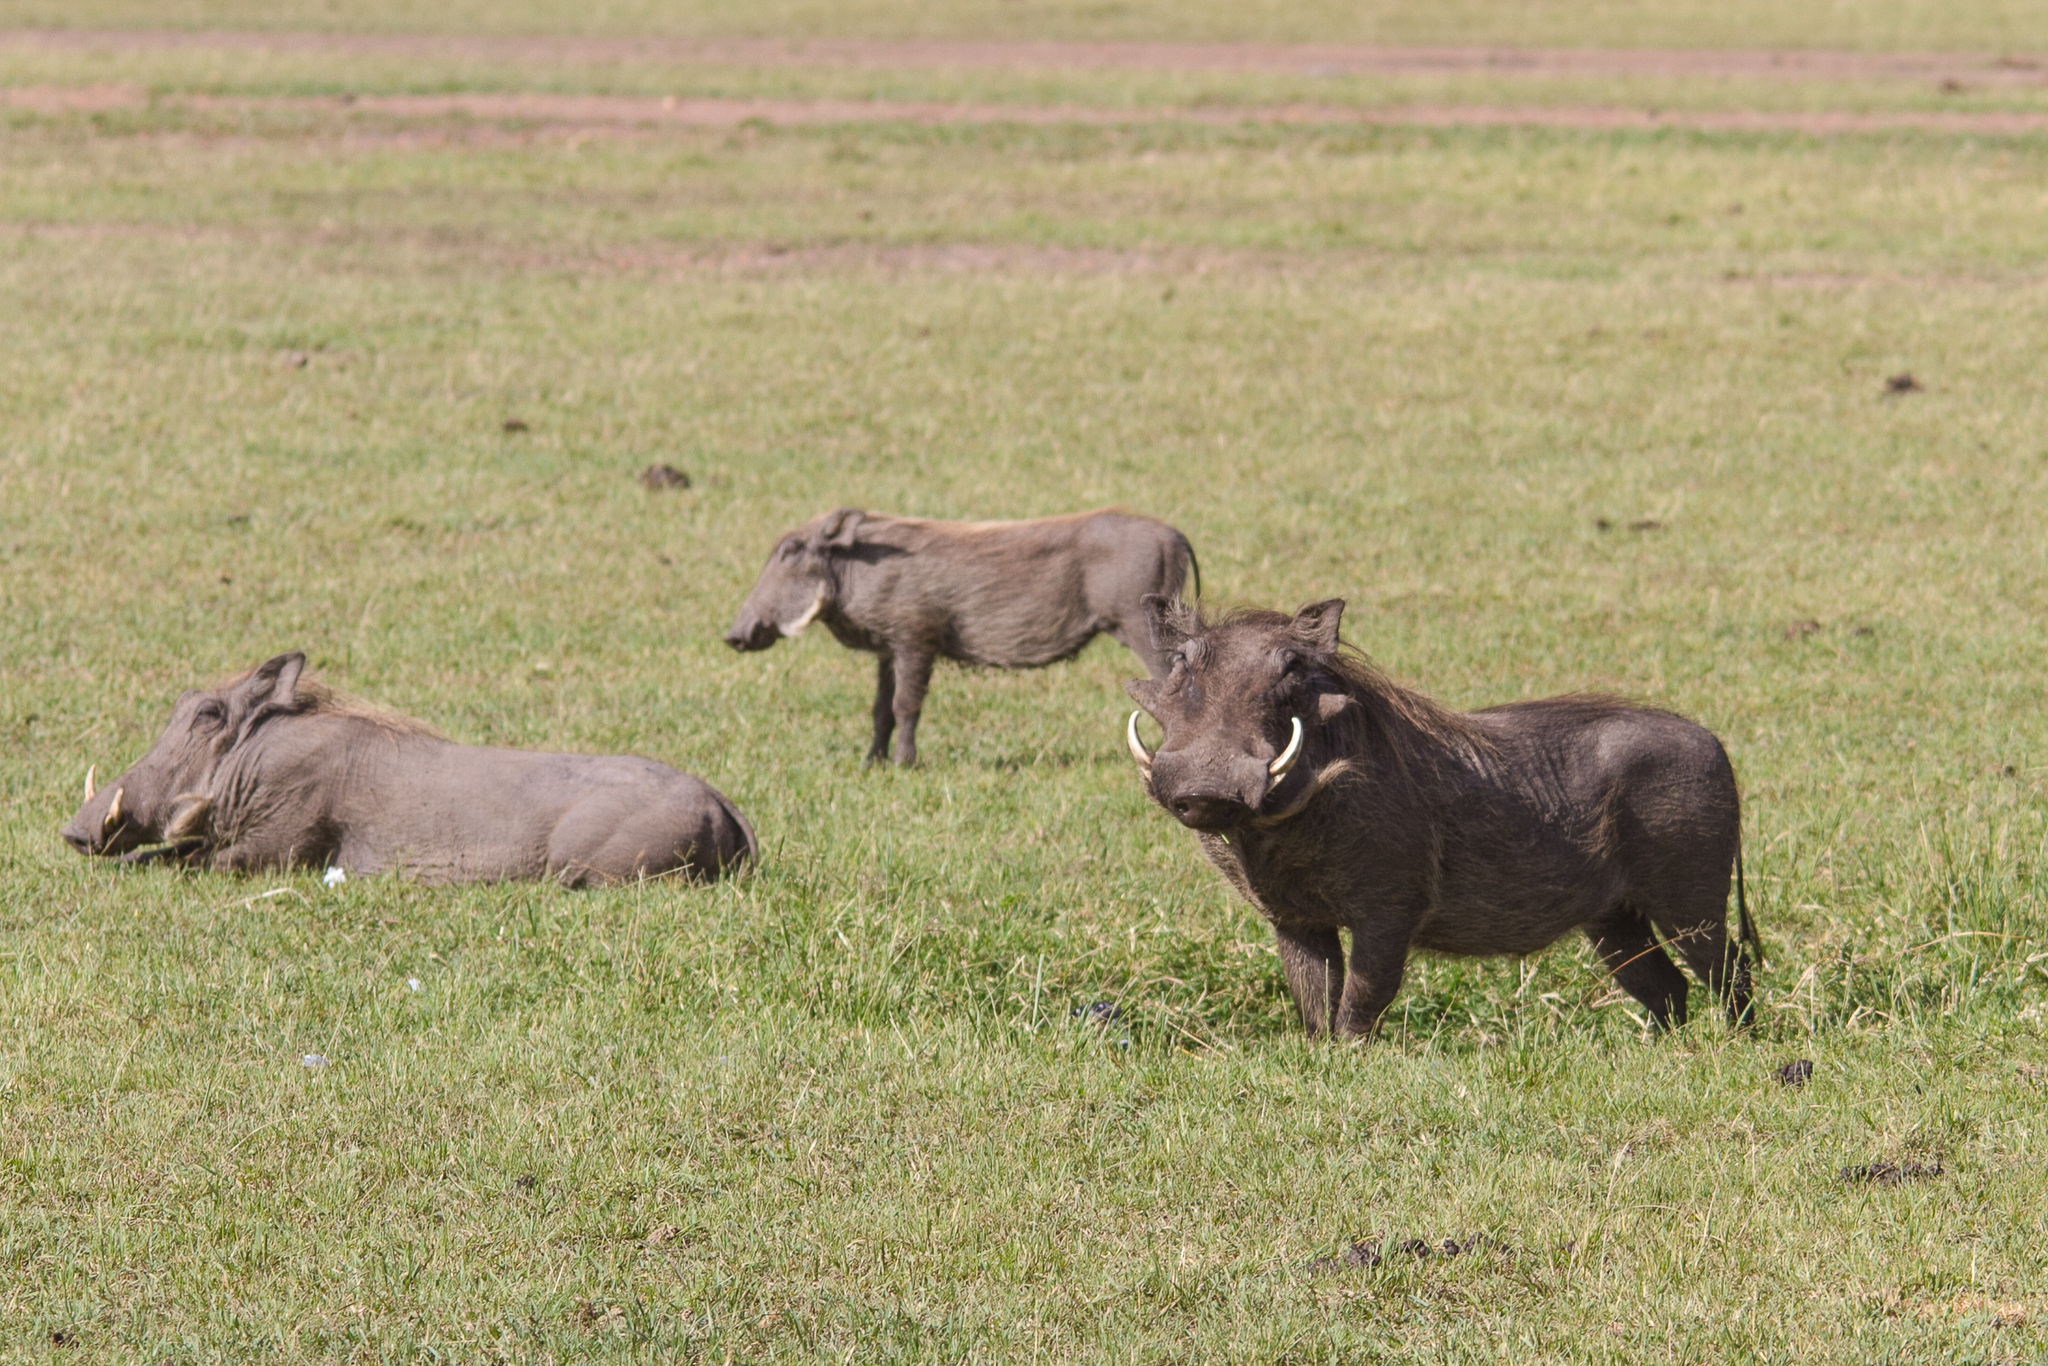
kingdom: Animalia
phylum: Chordata
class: Mammalia
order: Artiodactyla
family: Suidae
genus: Phacochoerus
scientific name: Phacochoerus africanus
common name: Common warthog
